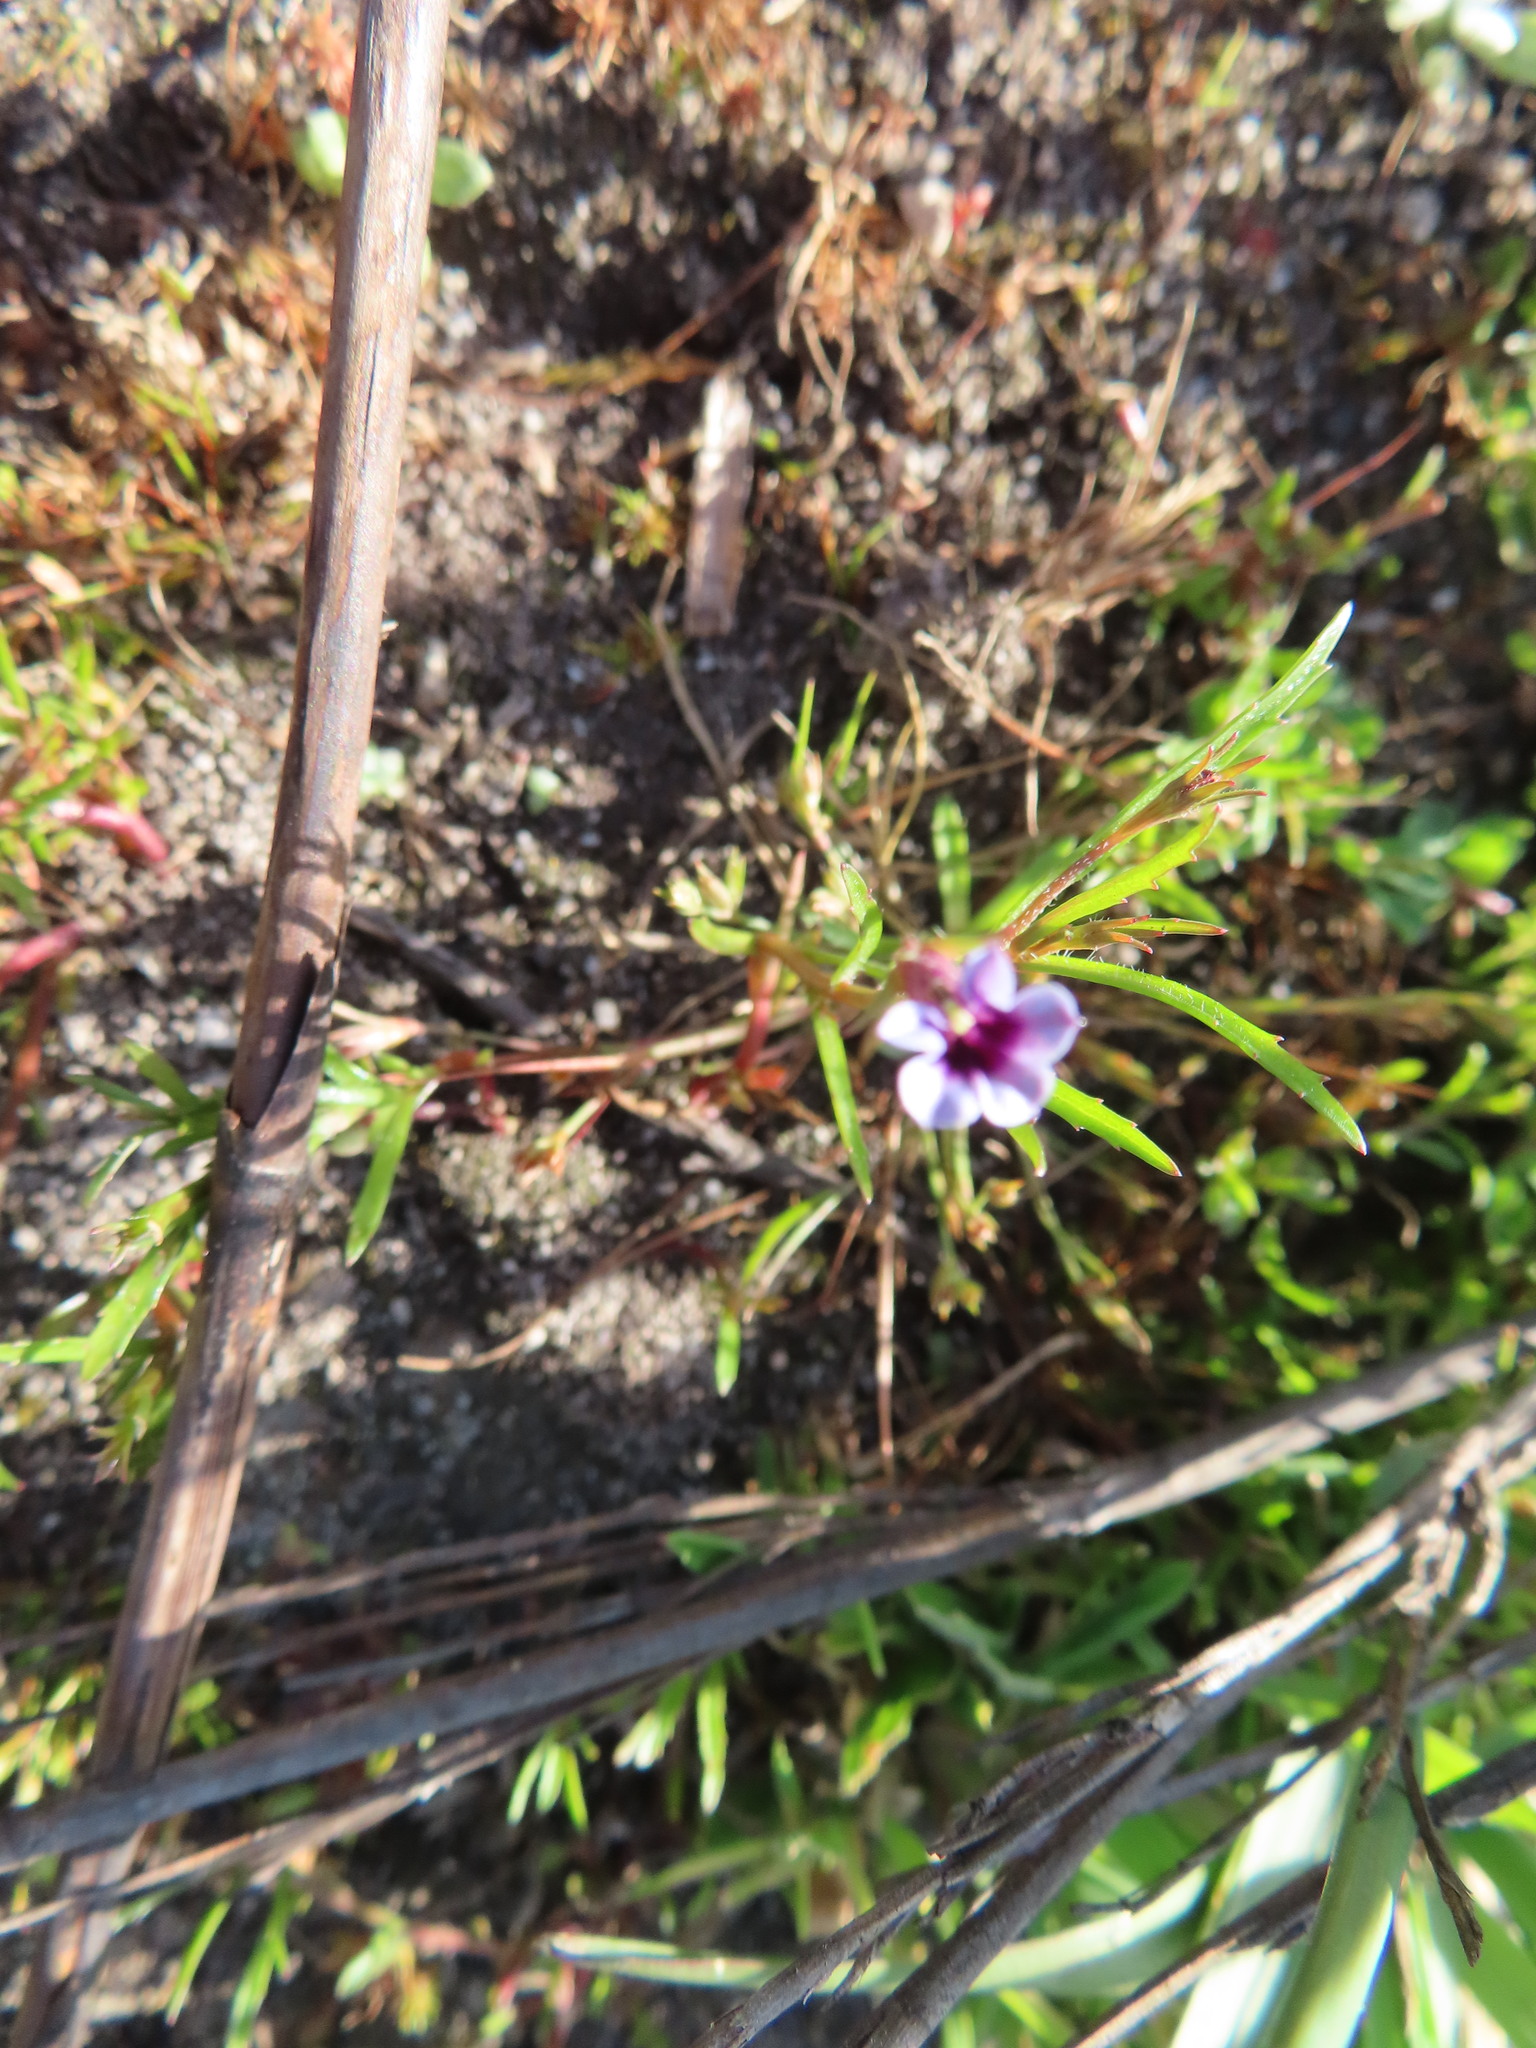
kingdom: Plantae
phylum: Tracheophyta
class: Magnoliopsida
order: Asterales
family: Campanulaceae
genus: Monopsis
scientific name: Monopsis debilis
